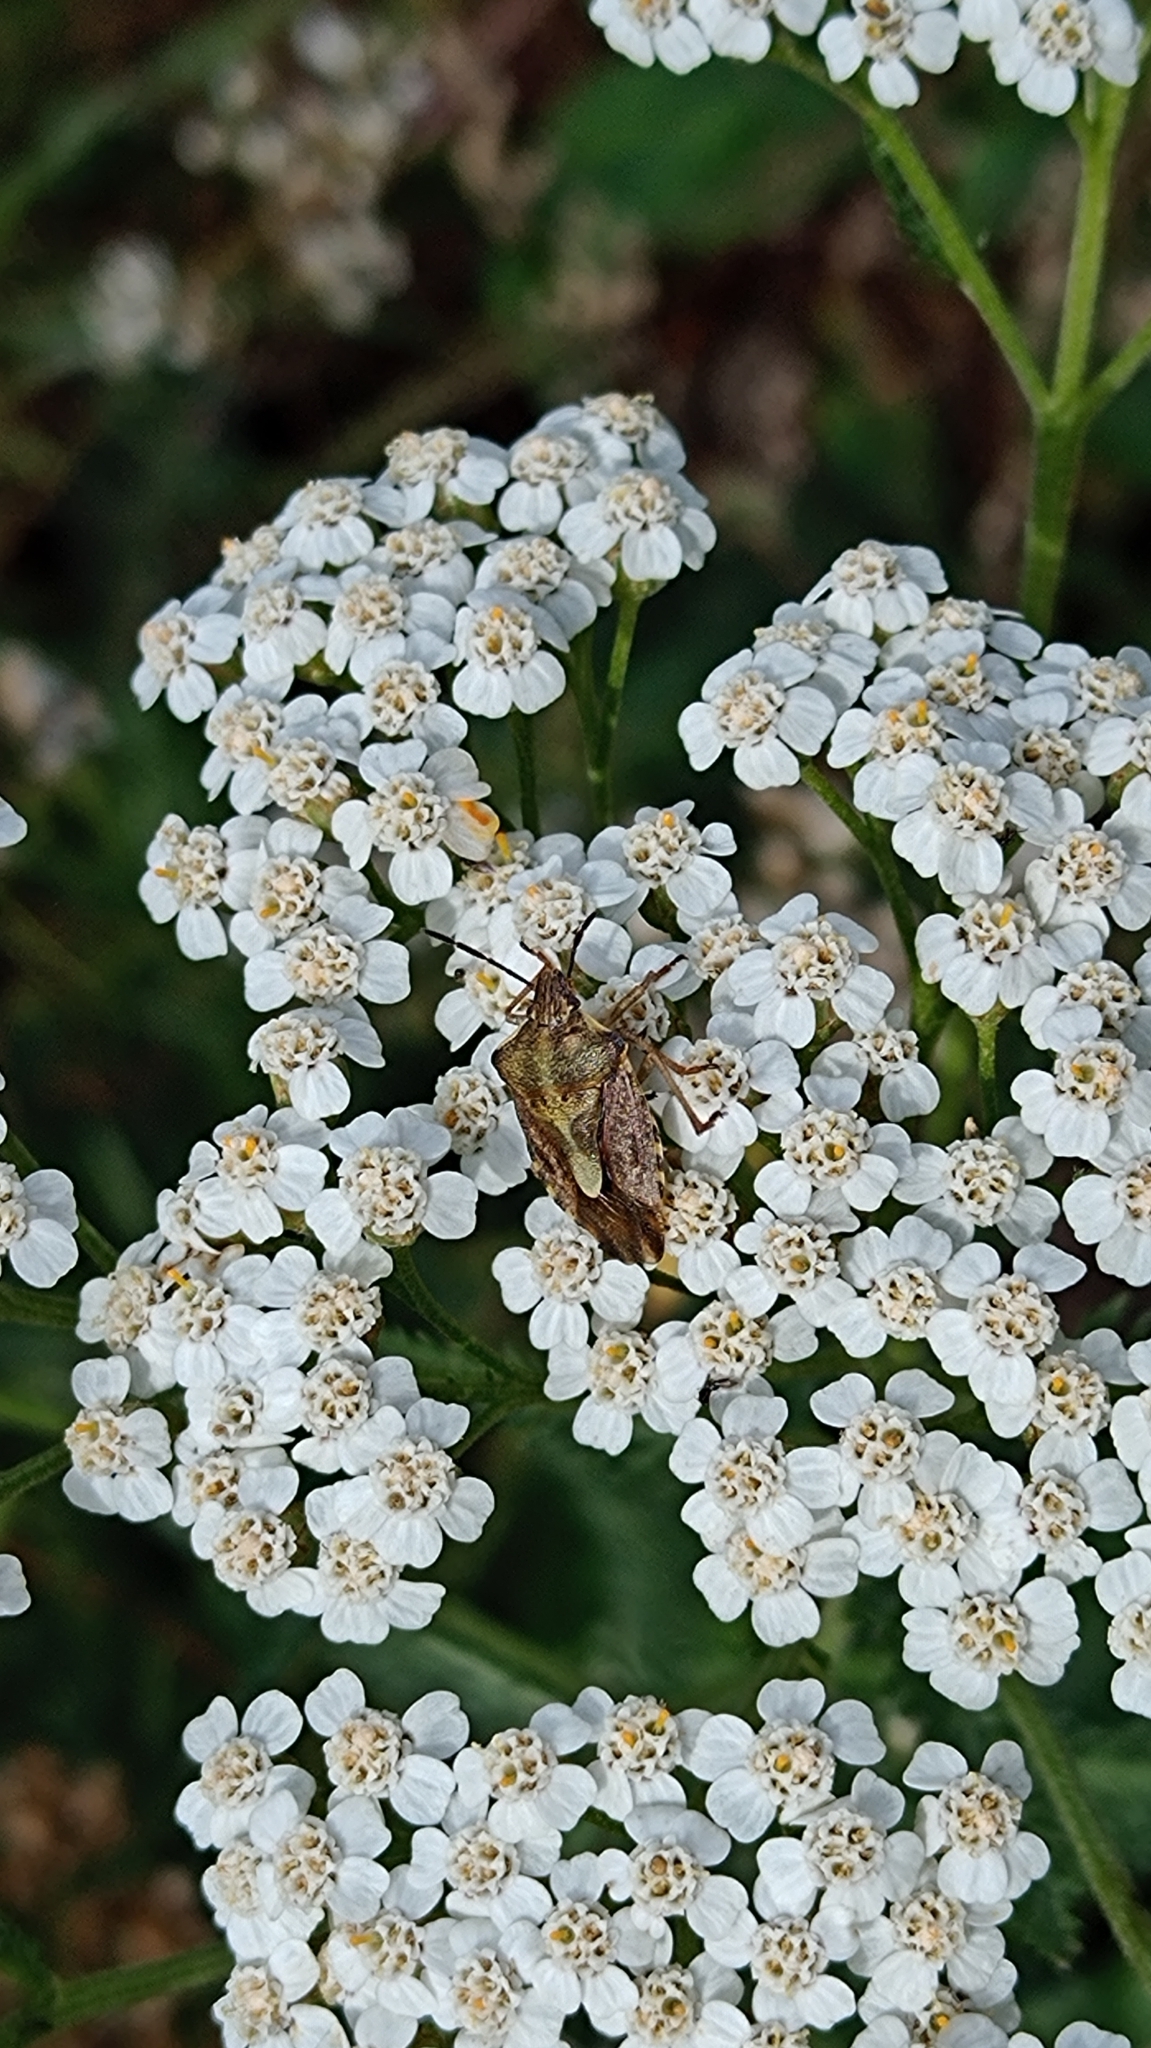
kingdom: Animalia
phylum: Arthropoda
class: Insecta
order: Hemiptera
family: Pentatomidae
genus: Carpocoris
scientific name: Carpocoris purpureipennis
